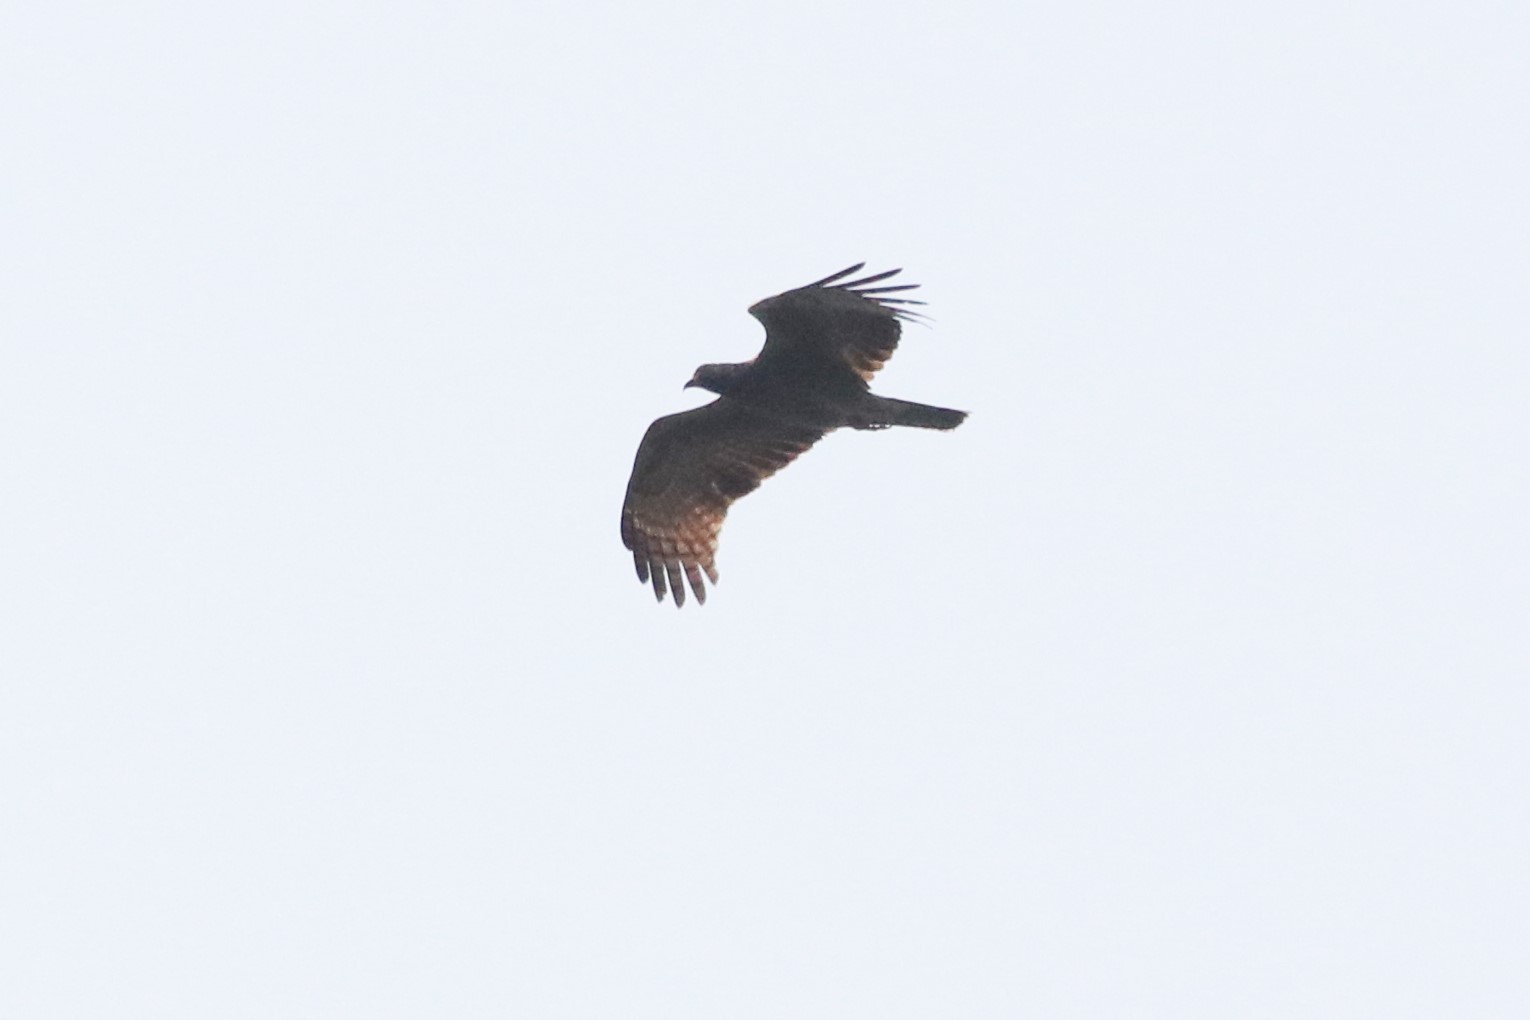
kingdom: Animalia
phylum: Chordata
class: Aves
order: Accipitriformes
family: Accipitridae
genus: Pernis
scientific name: Pernis ptilorhynchus
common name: Crested honey buzzard
